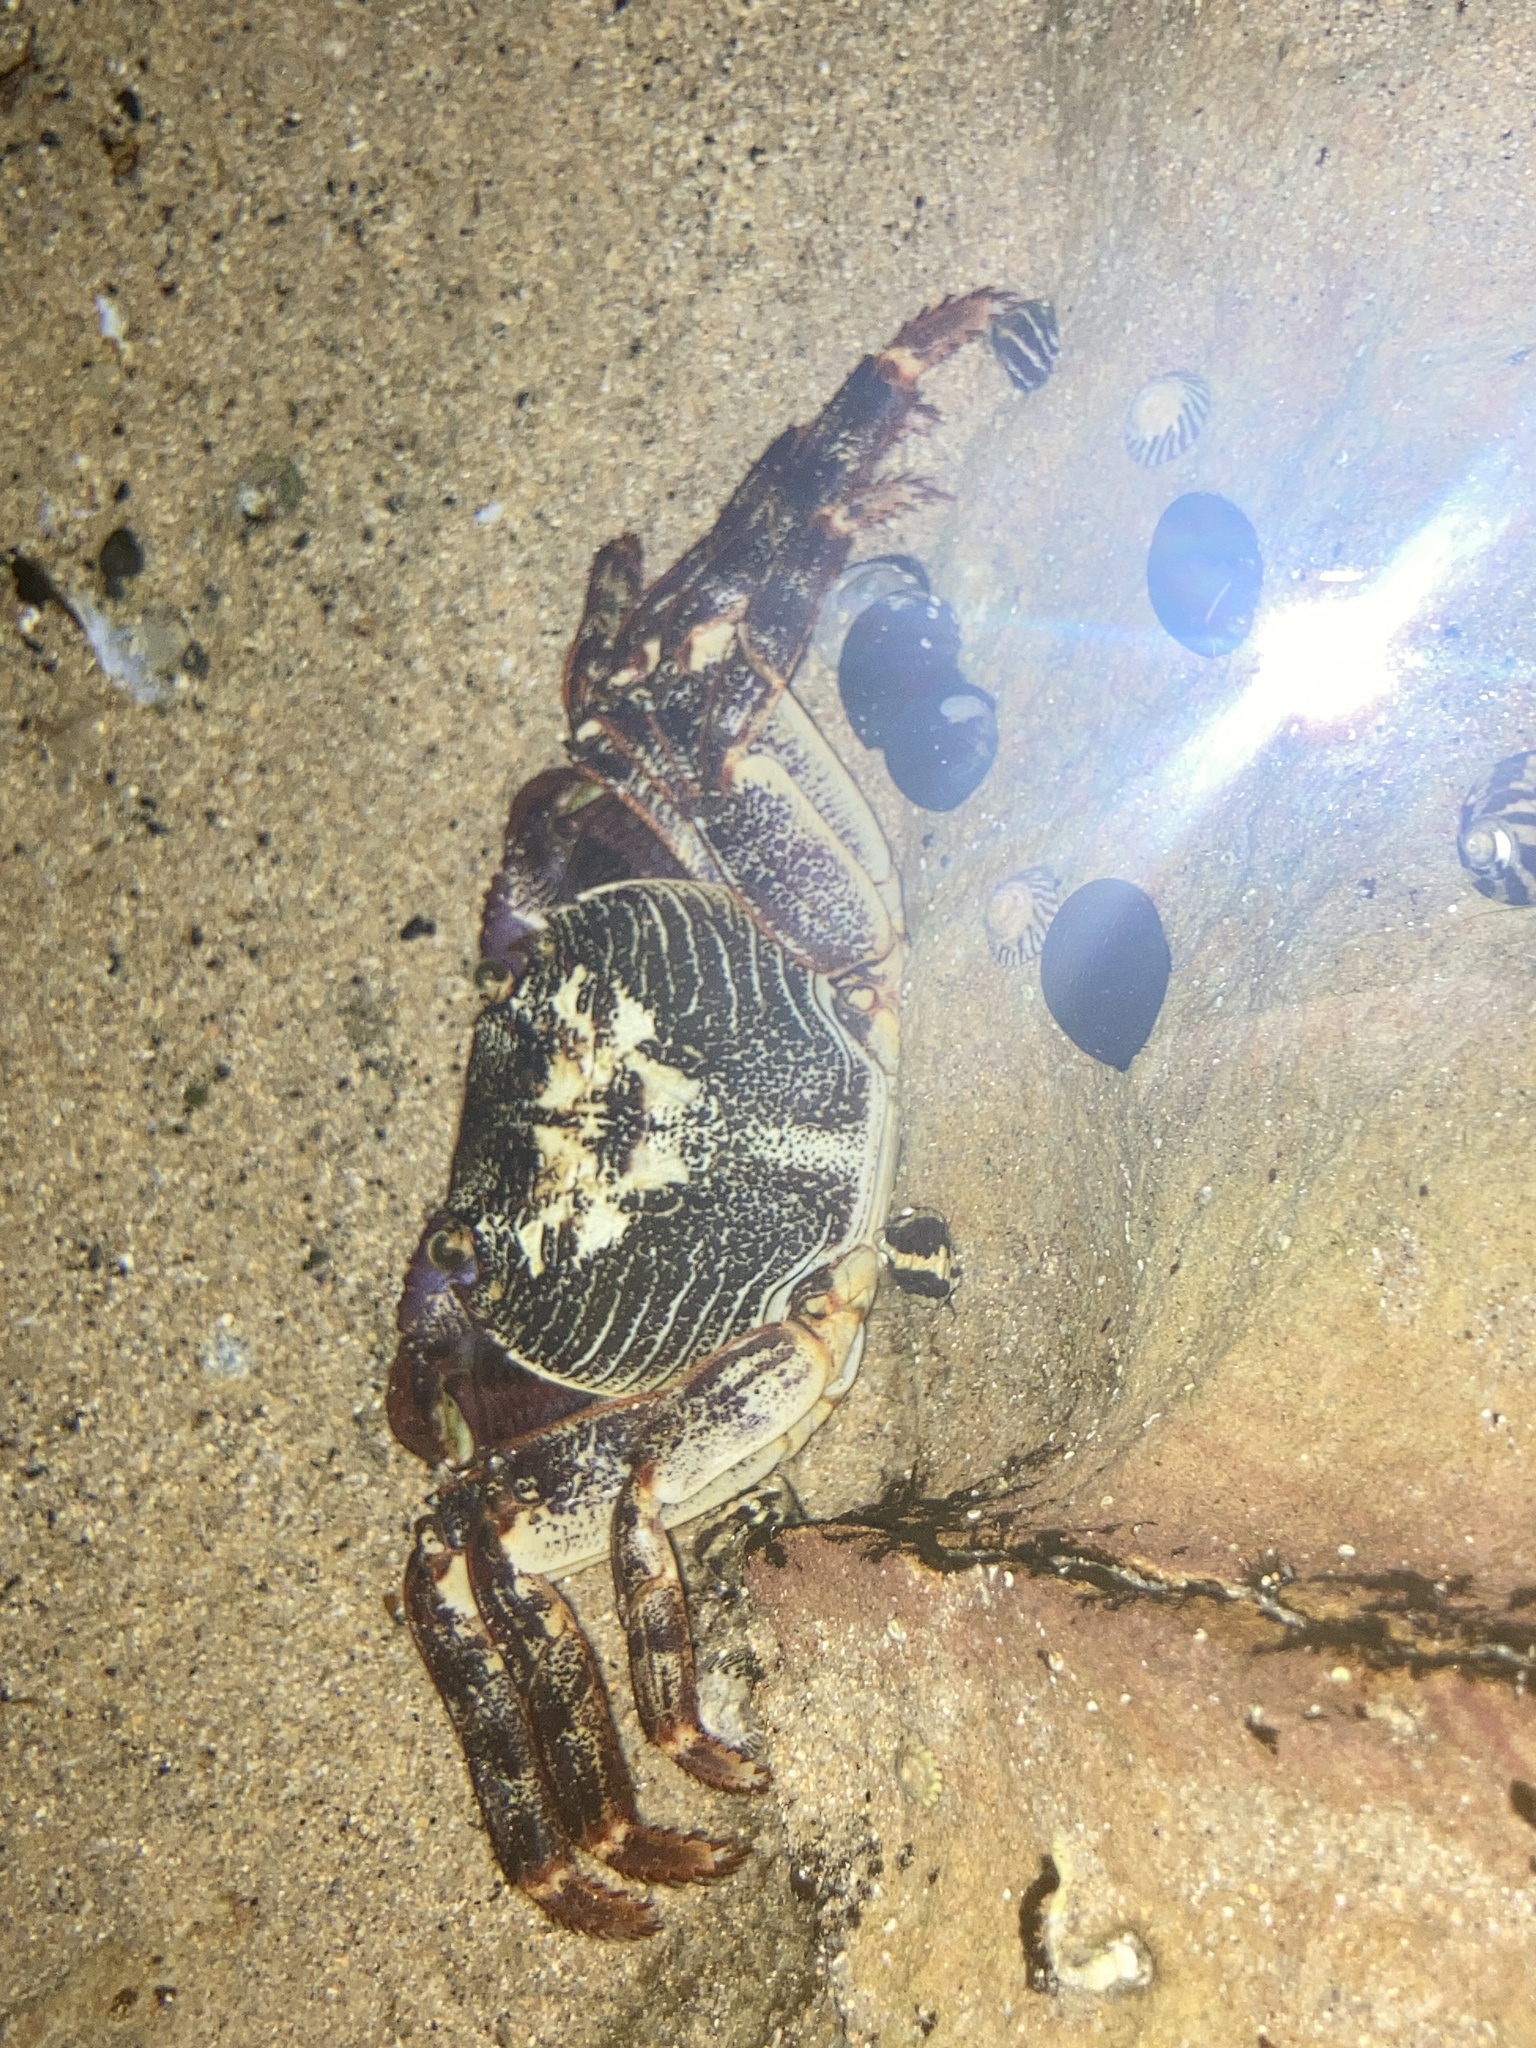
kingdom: Animalia
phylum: Arthropoda
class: Malacostraca
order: Decapoda
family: Grapsidae
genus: Leptograpsus
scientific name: Leptograpsus variegatus
